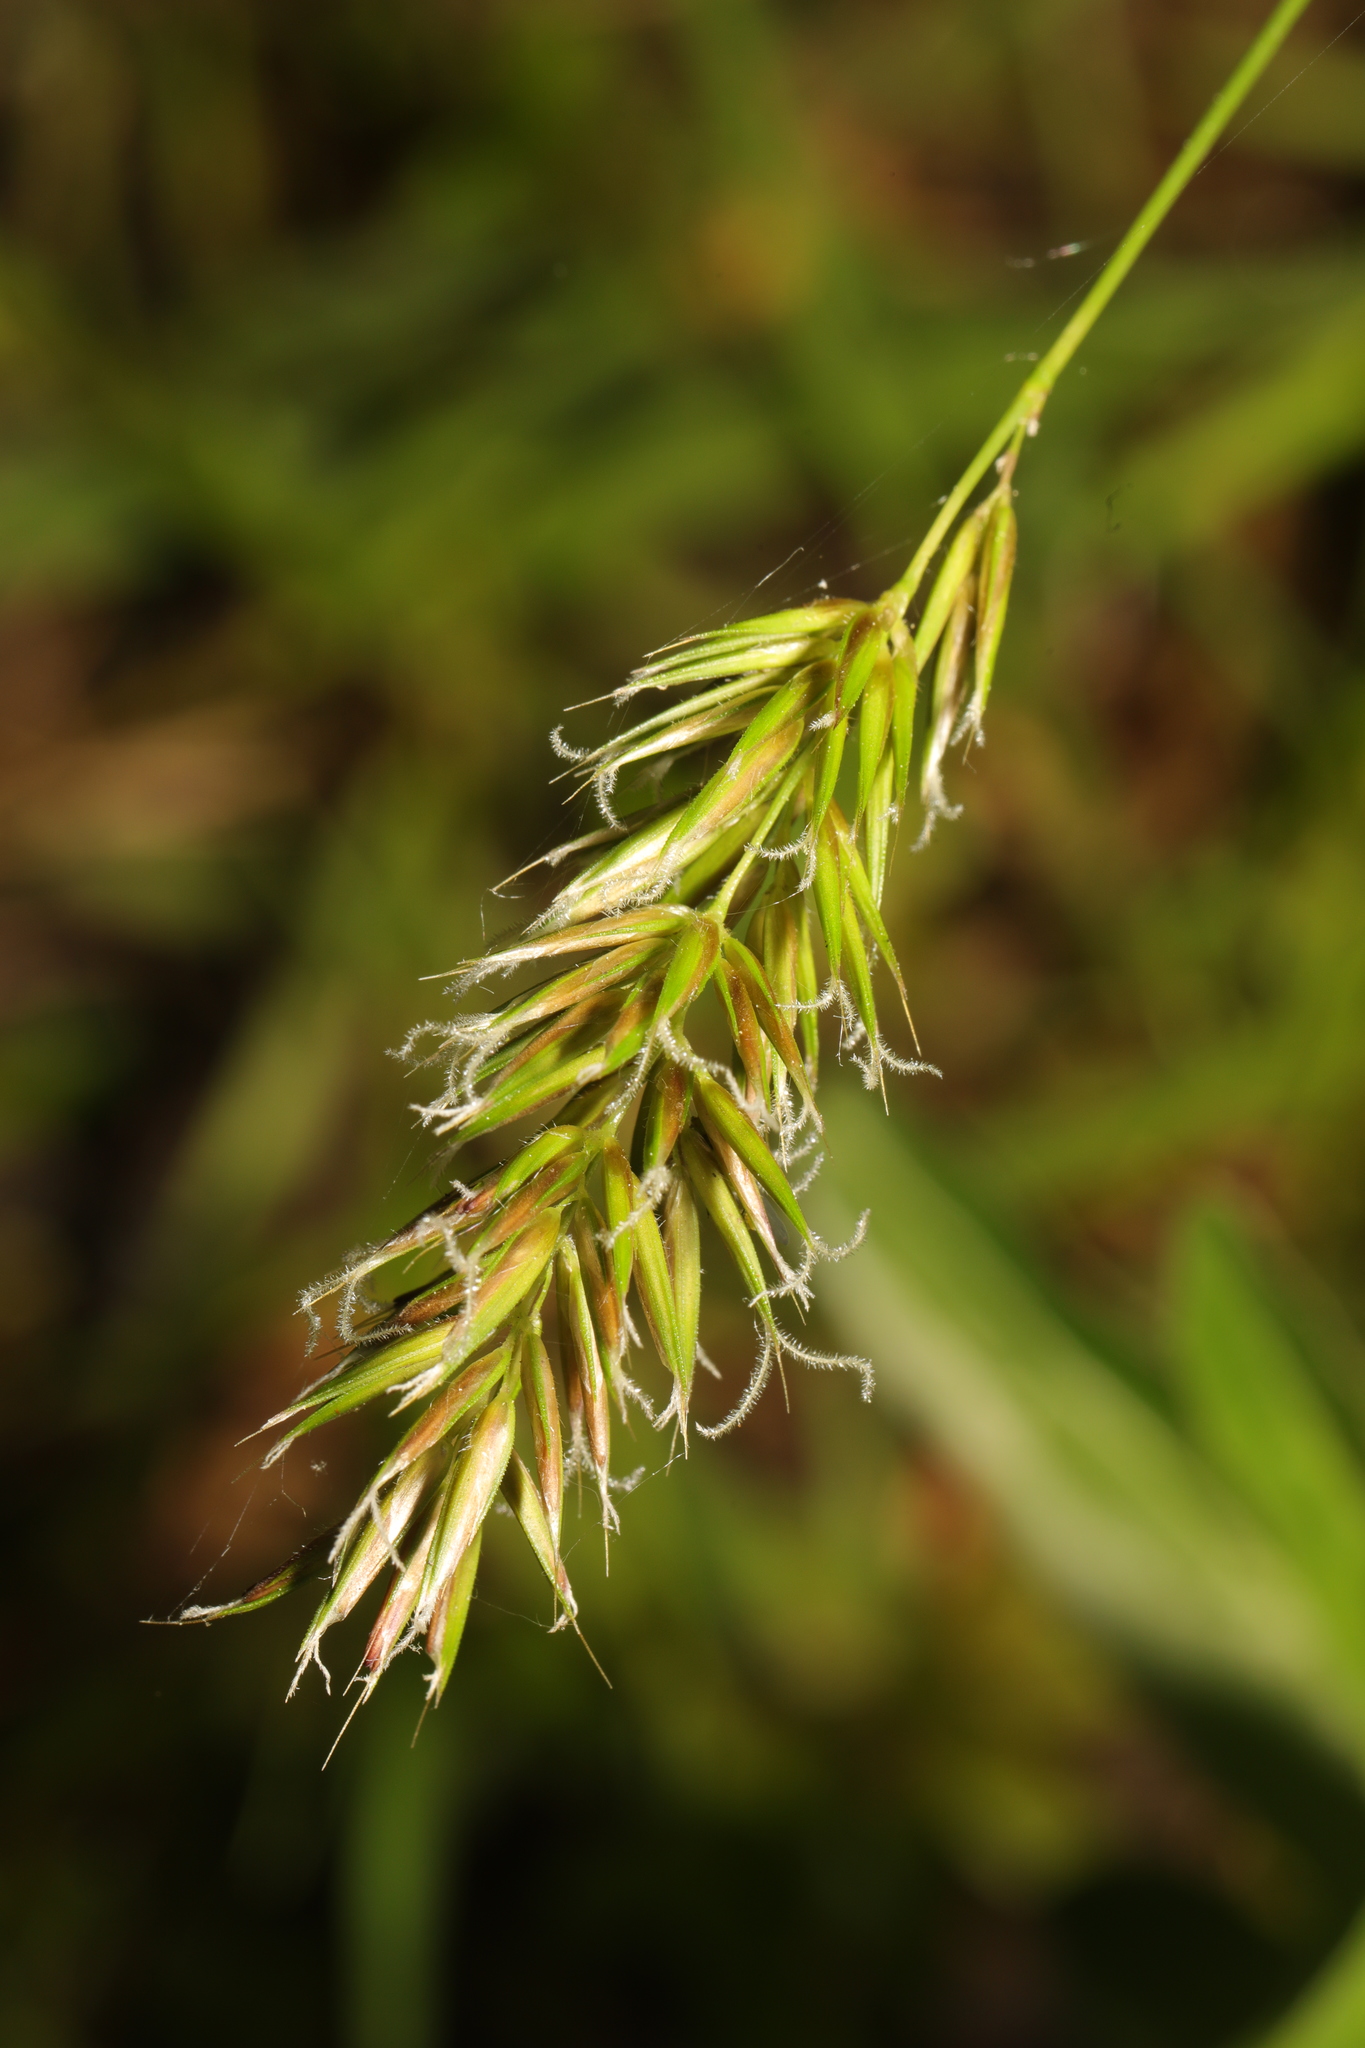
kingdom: Plantae
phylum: Tracheophyta
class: Liliopsida
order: Poales
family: Poaceae
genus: Anthoxanthum
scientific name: Anthoxanthum odoratum
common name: Sweet vernalgrass
